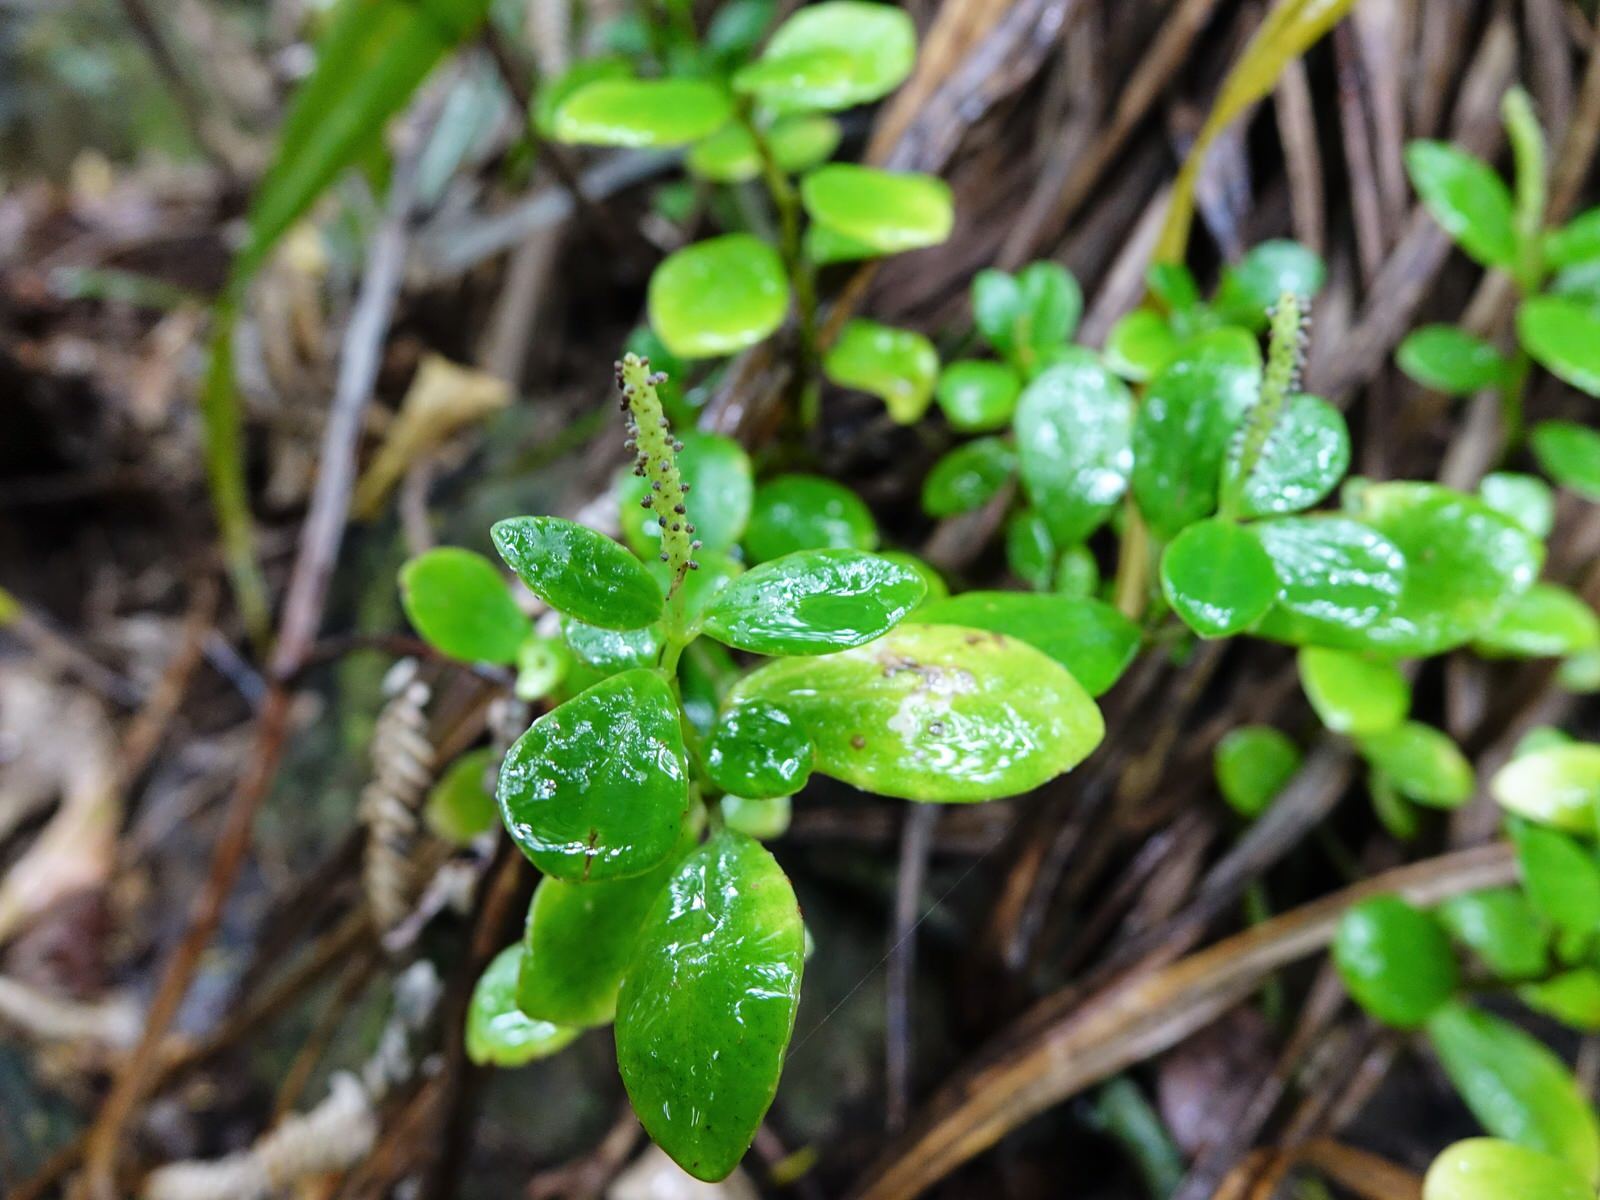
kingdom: Plantae
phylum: Tracheophyta
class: Magnoliopsida
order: Piperales
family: Piperaceae
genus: Peperomia
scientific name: Peperomia urvilleana
